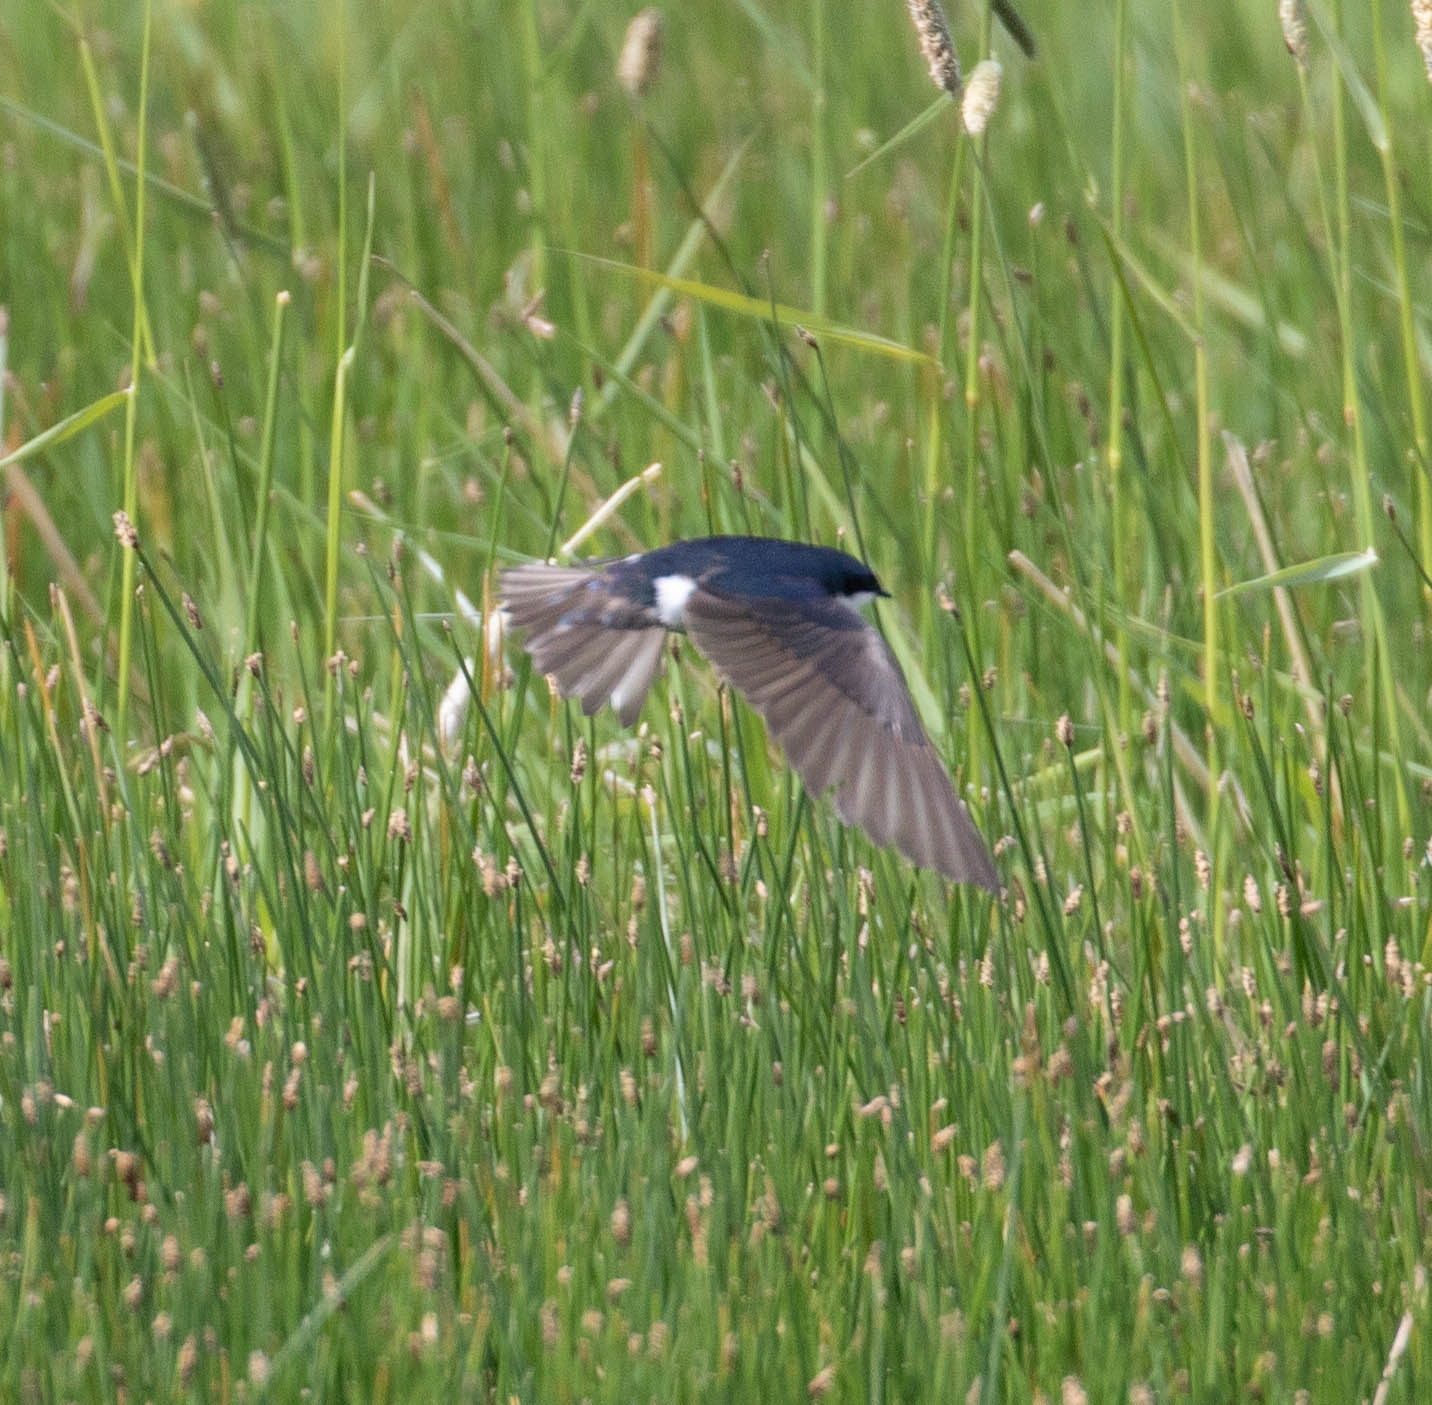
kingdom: Animalia
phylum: Chordata
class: Aves
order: Passeriformes
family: Hirundinidae
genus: Tachycineta
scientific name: Tachycineta bicolor
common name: Tree swallow
